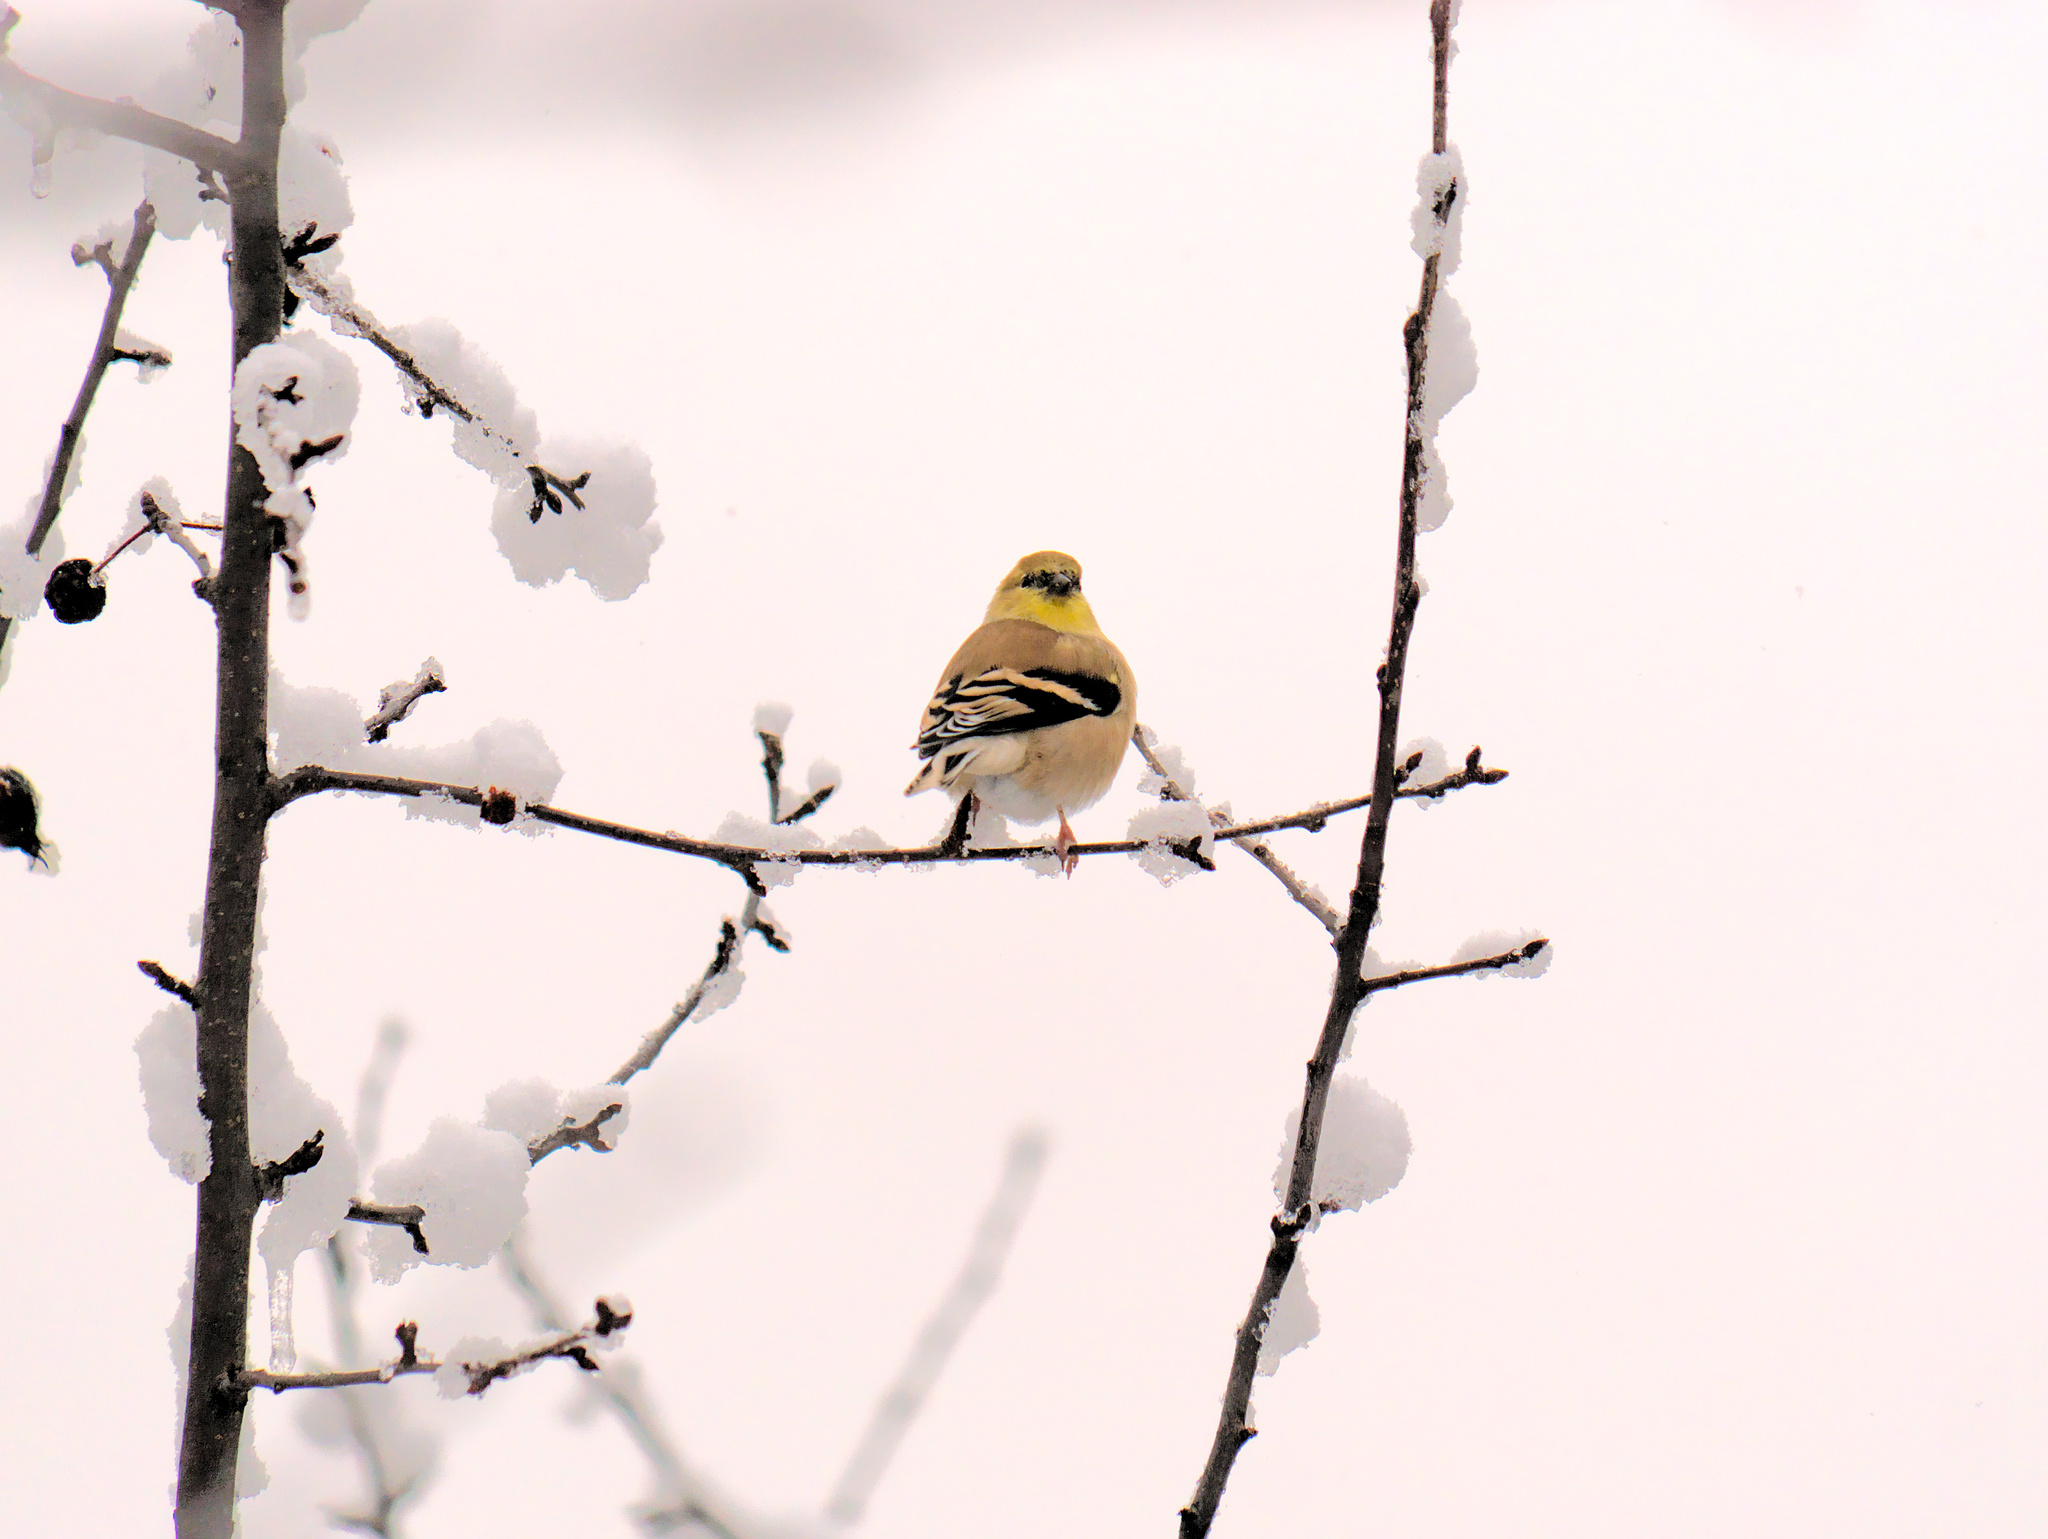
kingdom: Animalia
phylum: Chordata
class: Aves
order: Passeriformes
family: Fringillidae
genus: Spinus
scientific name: Spinus tristis
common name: American goldfinch
